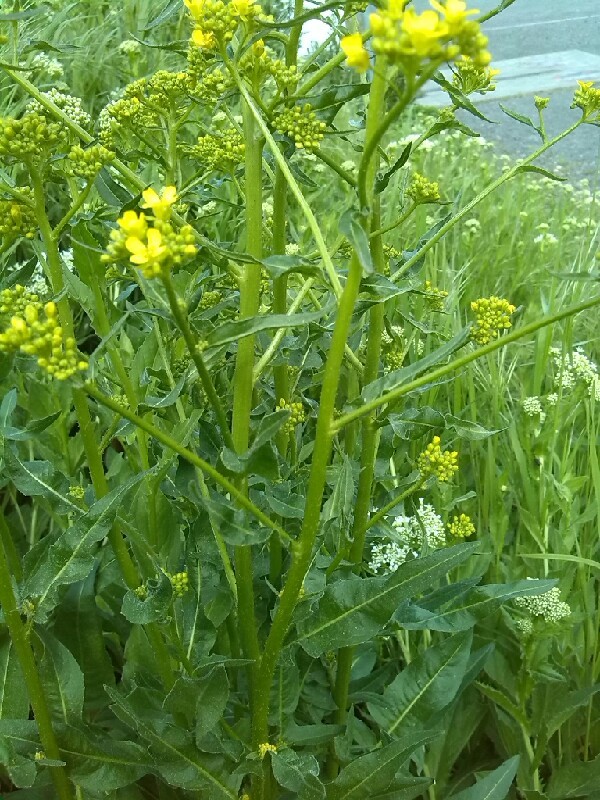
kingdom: Plantae
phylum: Tracheophyta
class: Magnoliopsida
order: Brassicales
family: Brassicaceae
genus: Bunias
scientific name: Bunias orientalis
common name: Warty-cabbage
